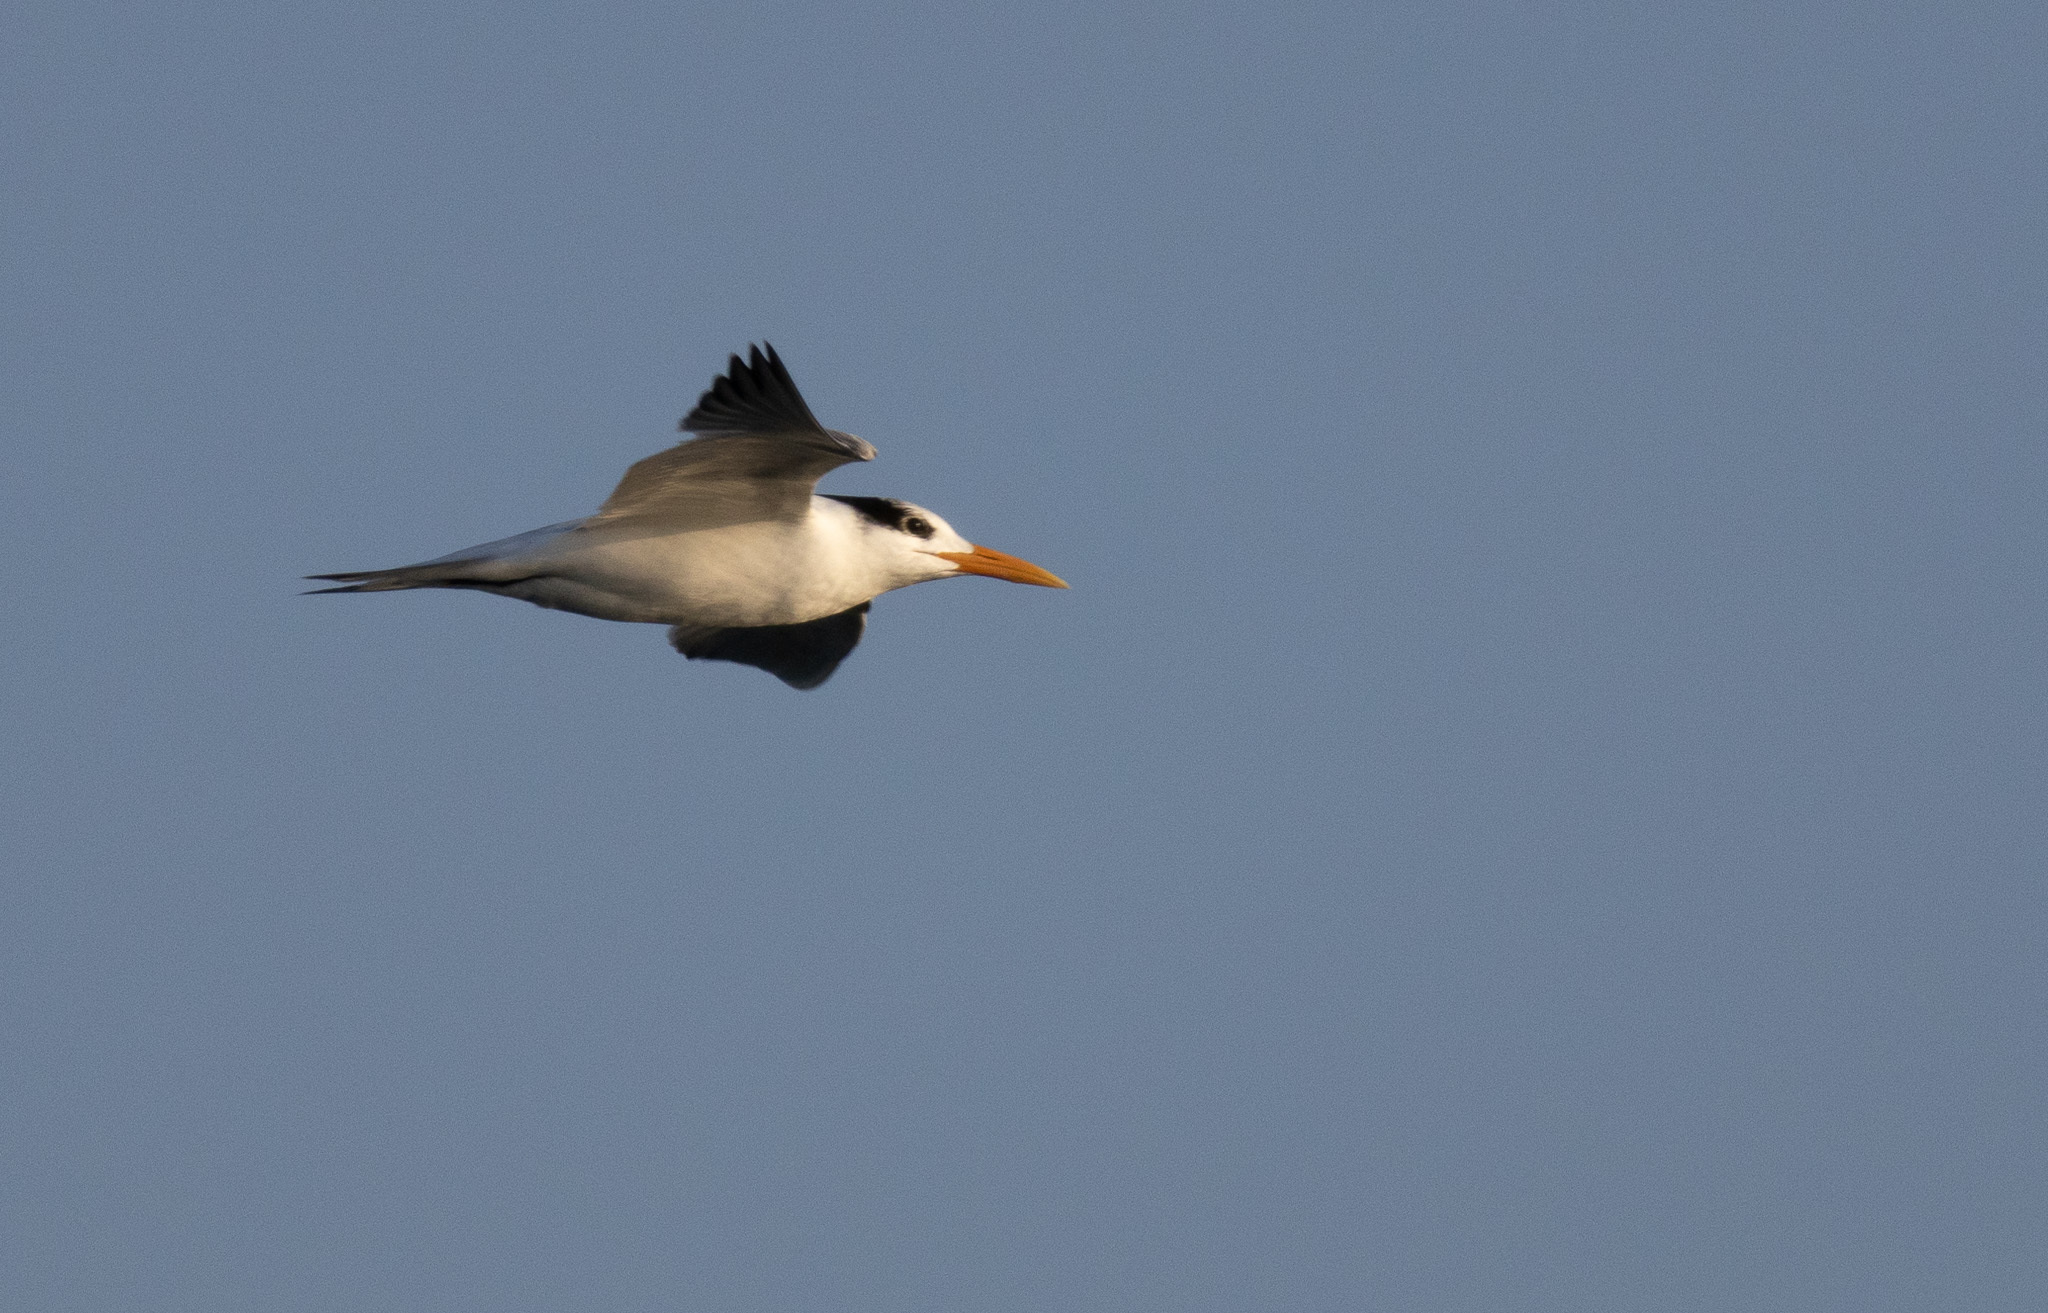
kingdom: Animalia
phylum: Chordata
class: Aves
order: Charadriiformes
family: Laridae
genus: Thalasseus
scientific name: Thalasseus maximus
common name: Royal tern
